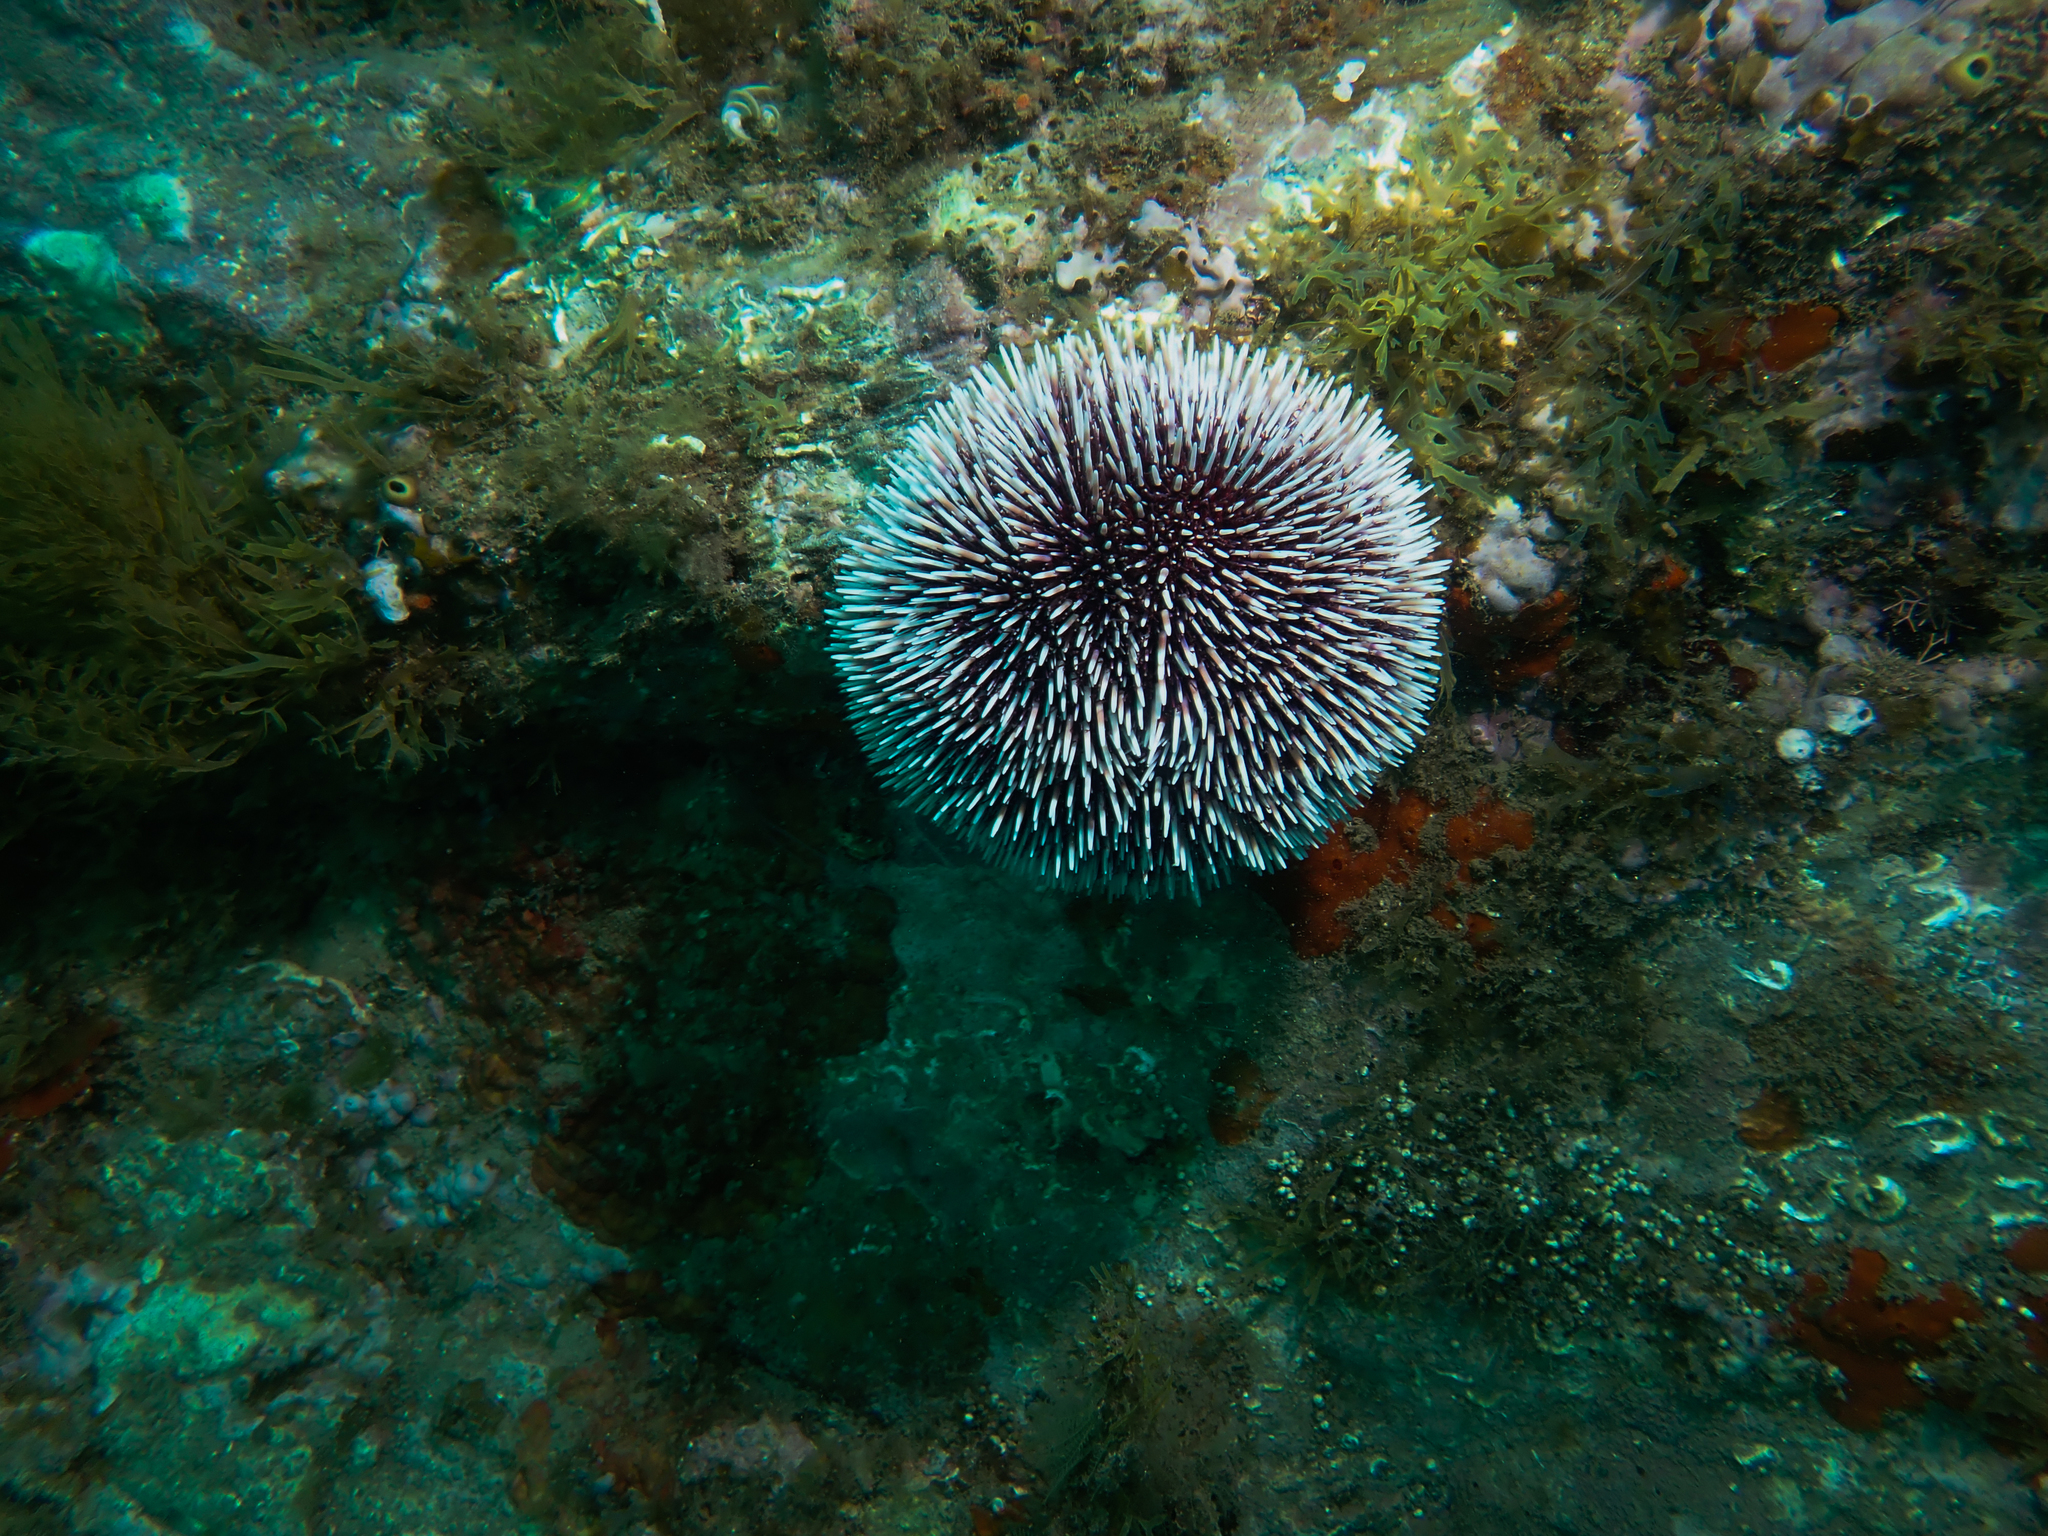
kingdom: Animalia
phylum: Echinodermata
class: Echinoidea
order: Camarodonta
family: Toxopneustidae
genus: Sphaerechinus
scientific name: Sphaerechinus granularis
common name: Violet sea urchin
